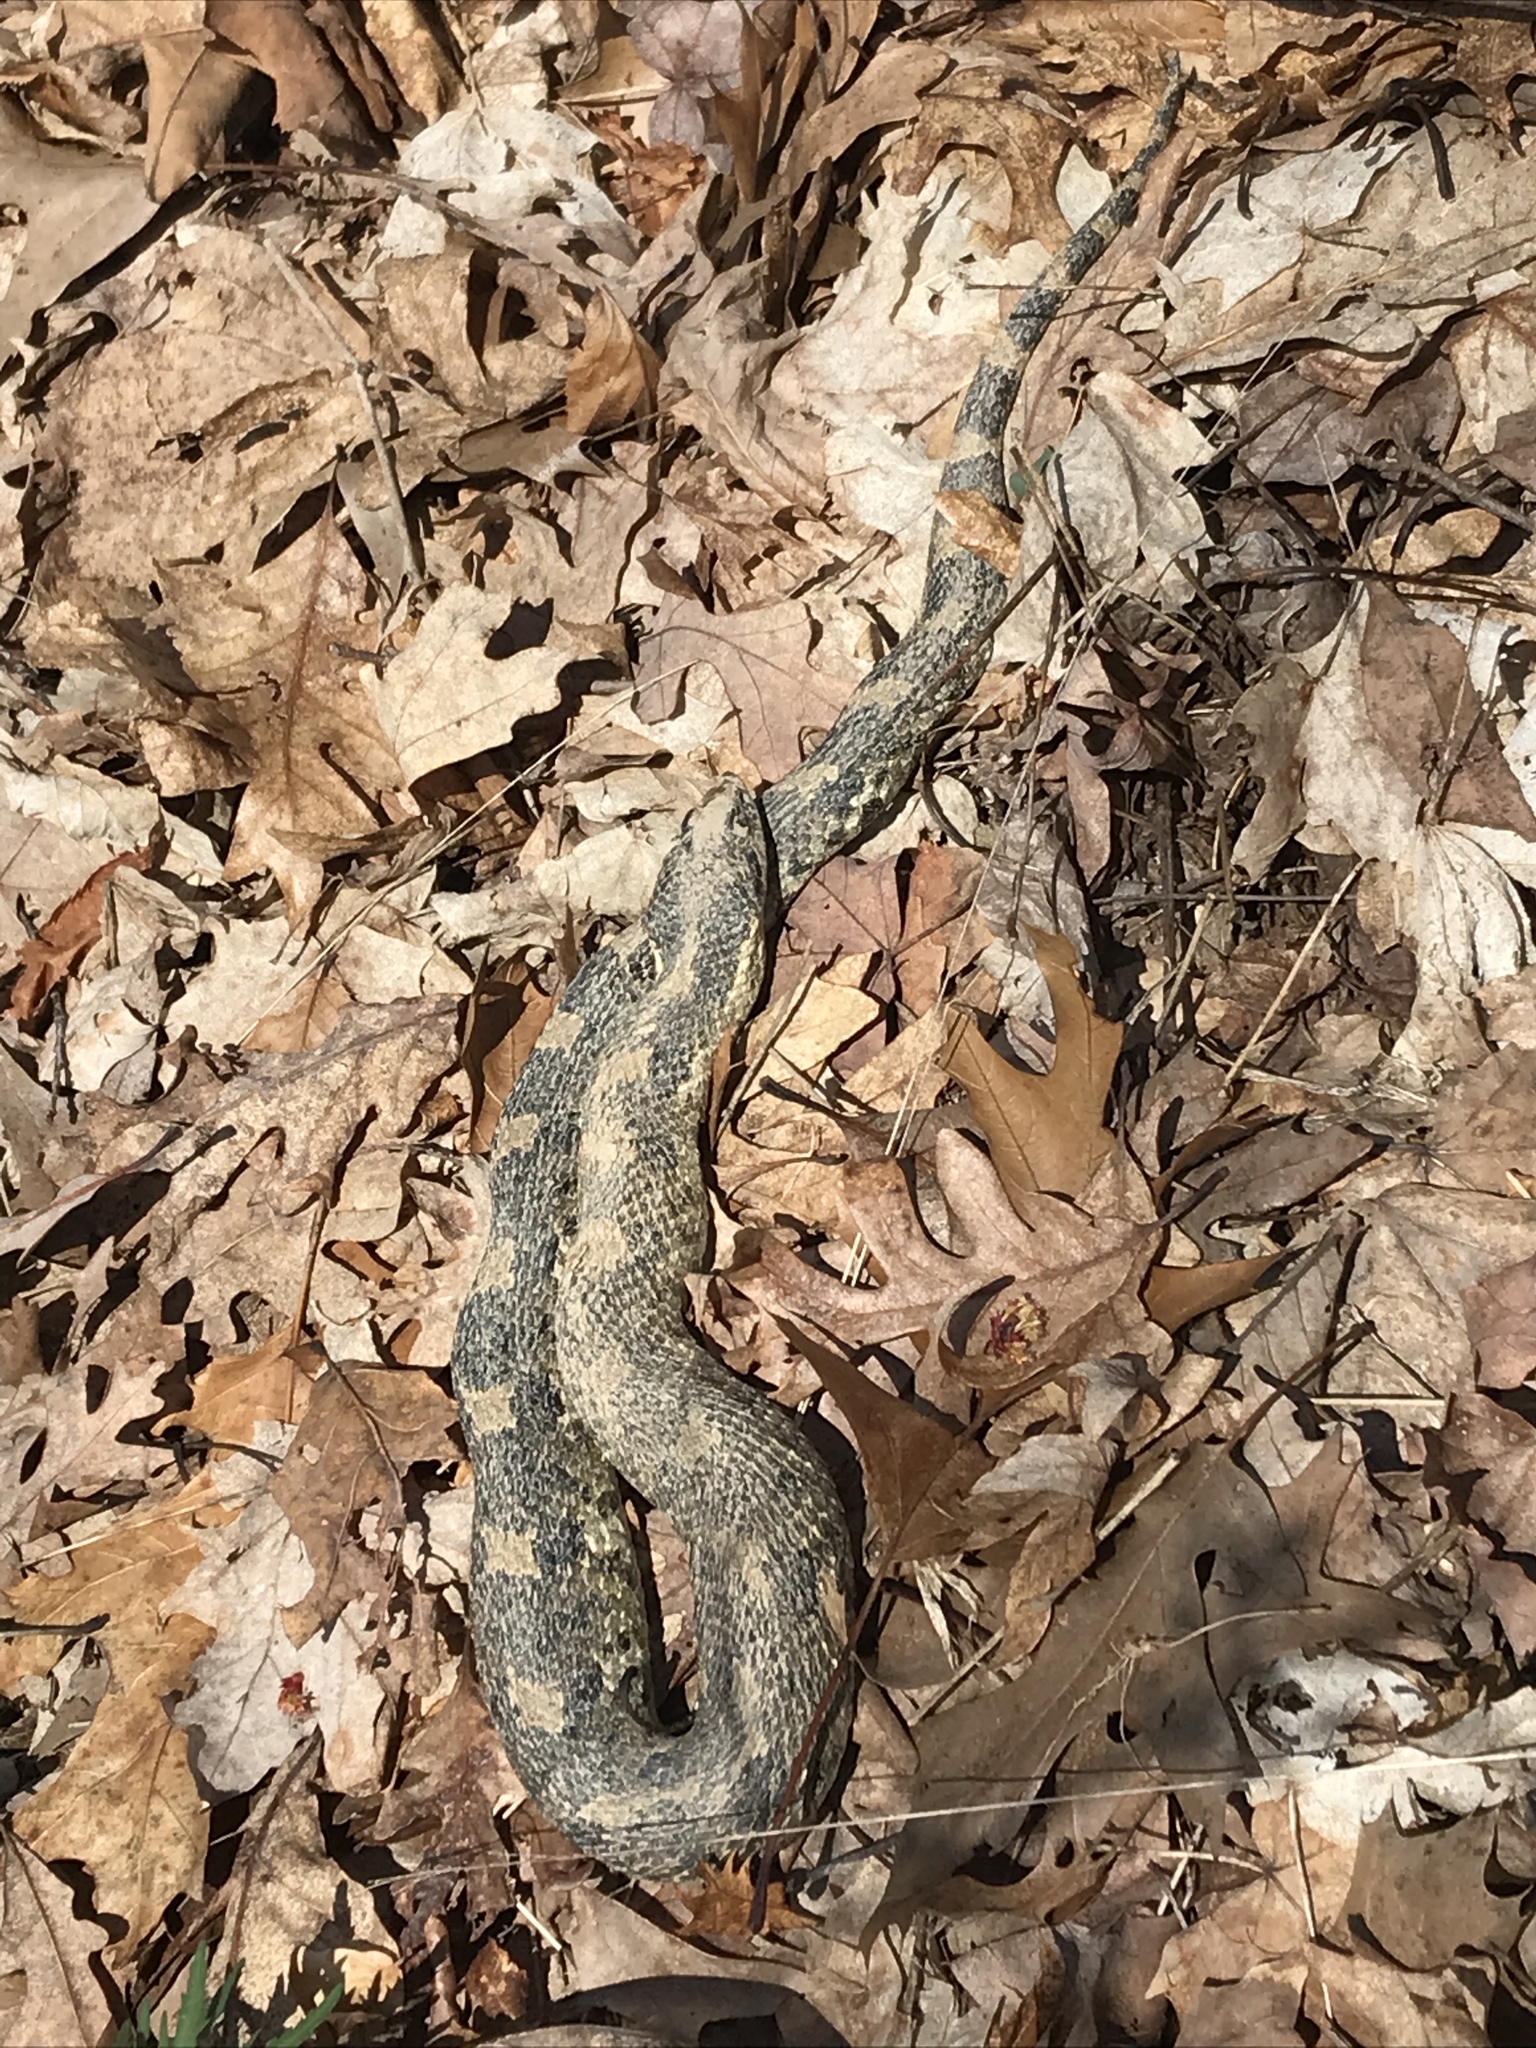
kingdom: Animalia
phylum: Chordata
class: Squamata
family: Colubridae
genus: Heterodon
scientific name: Heterodon platirhinos
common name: Eastern hognose snake
